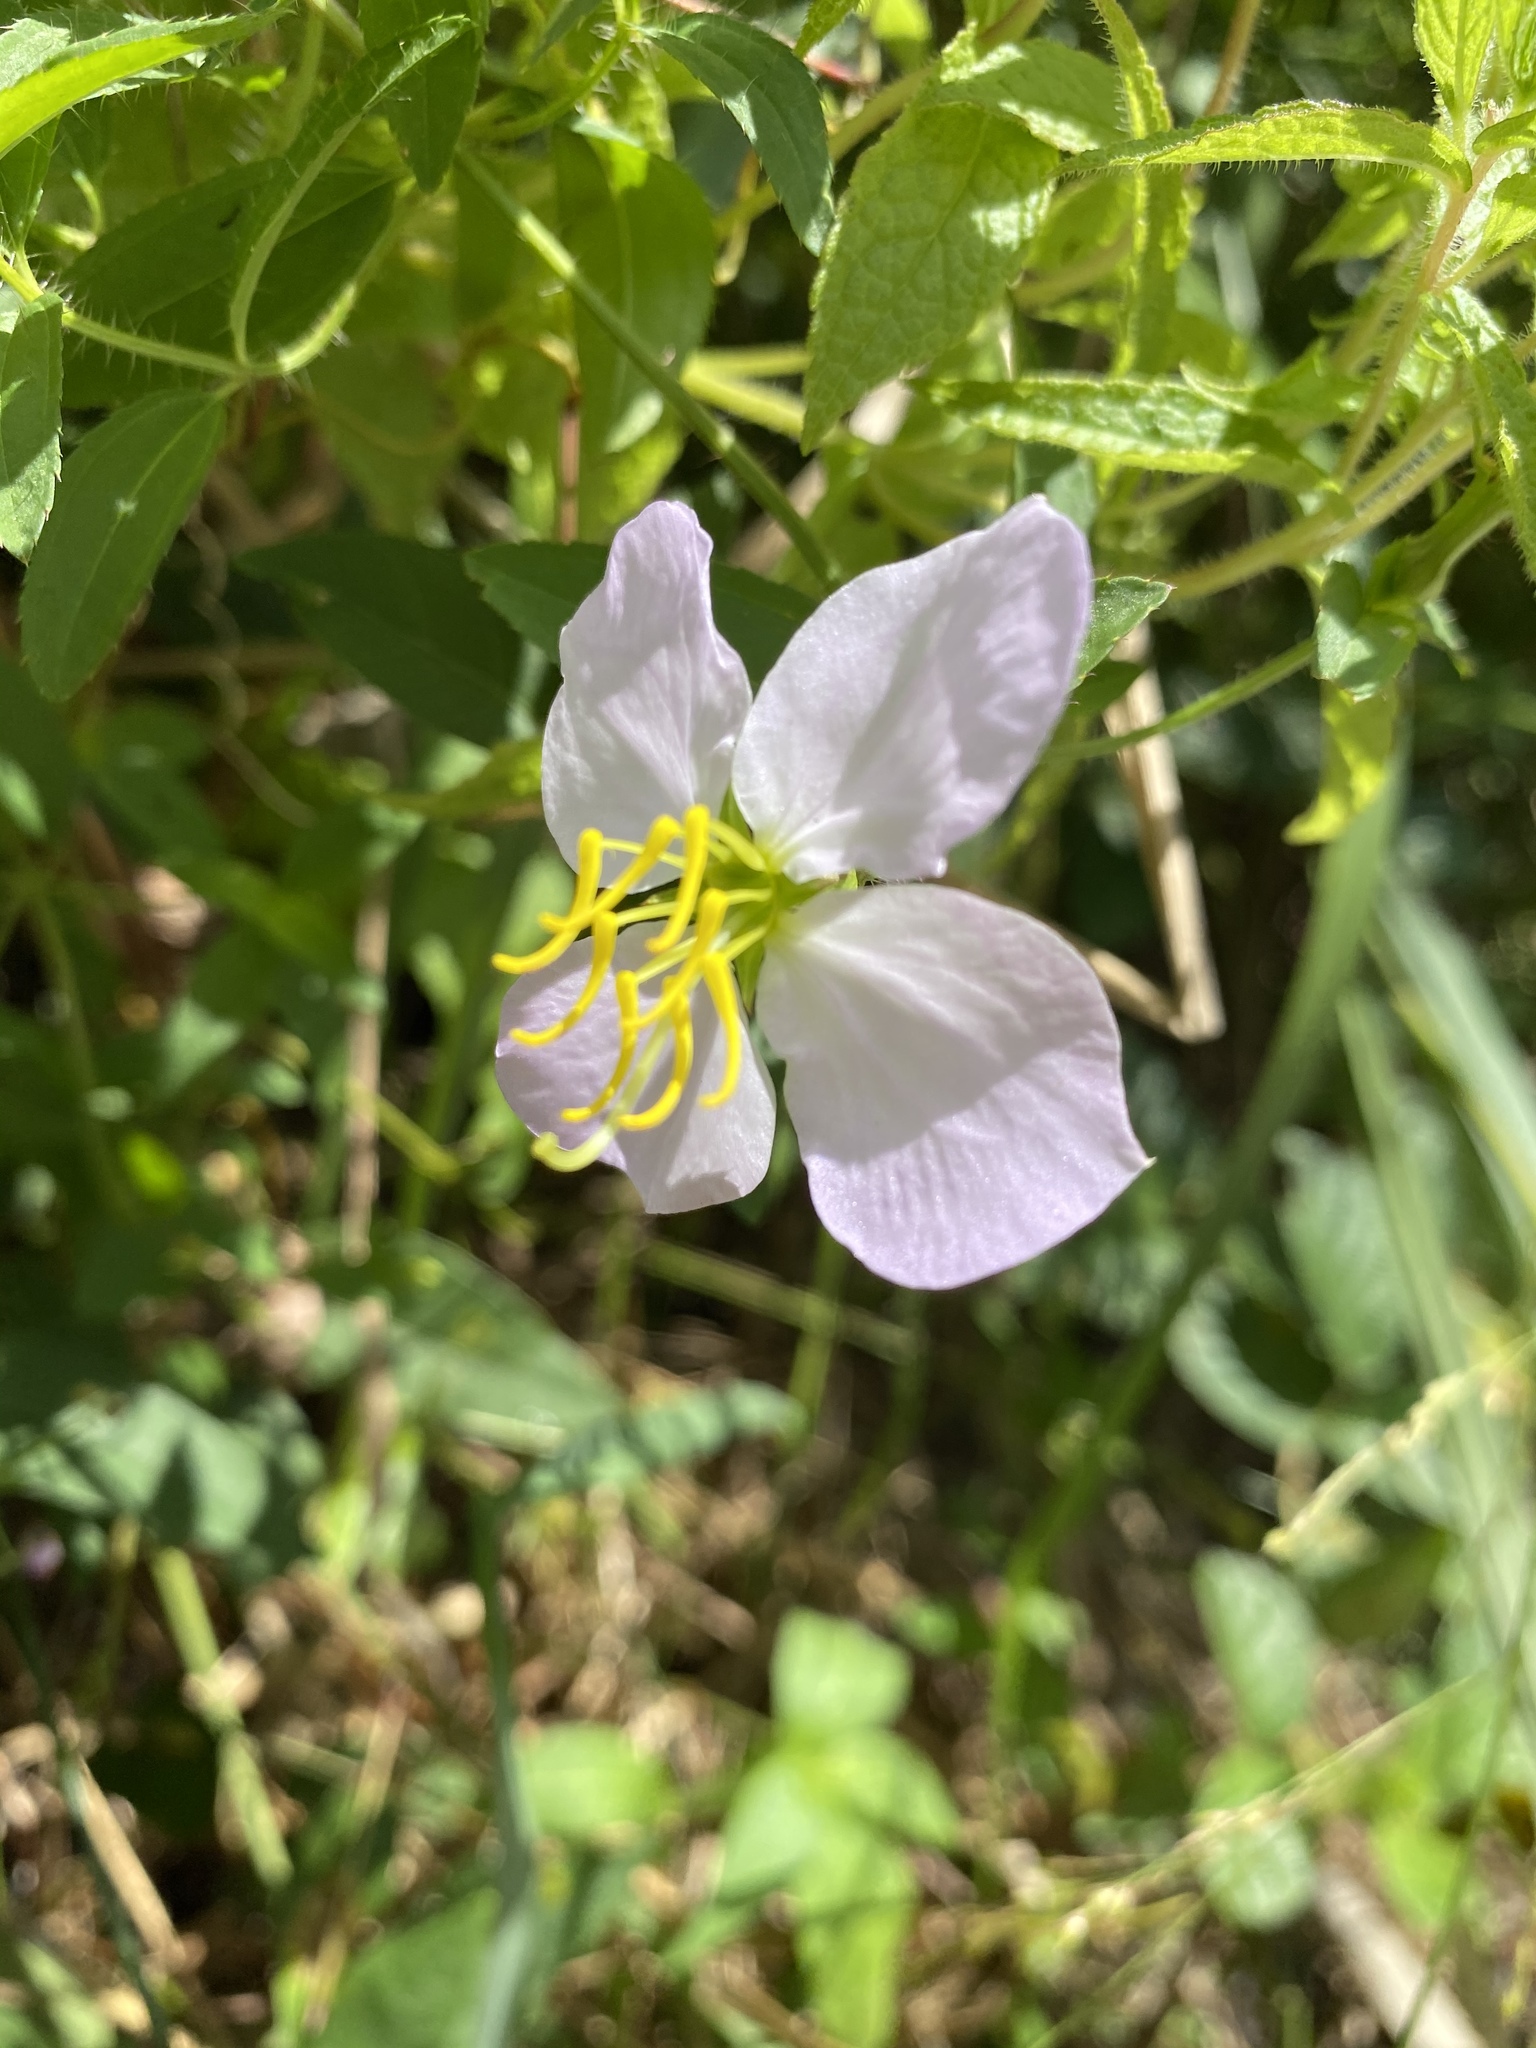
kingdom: Plantae
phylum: Tracheophyta
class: Magnoliopsida
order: Myrtales
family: Melastomataceae
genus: Rhexia
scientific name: Rhexia mariana
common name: Dull meadow-pitcher
